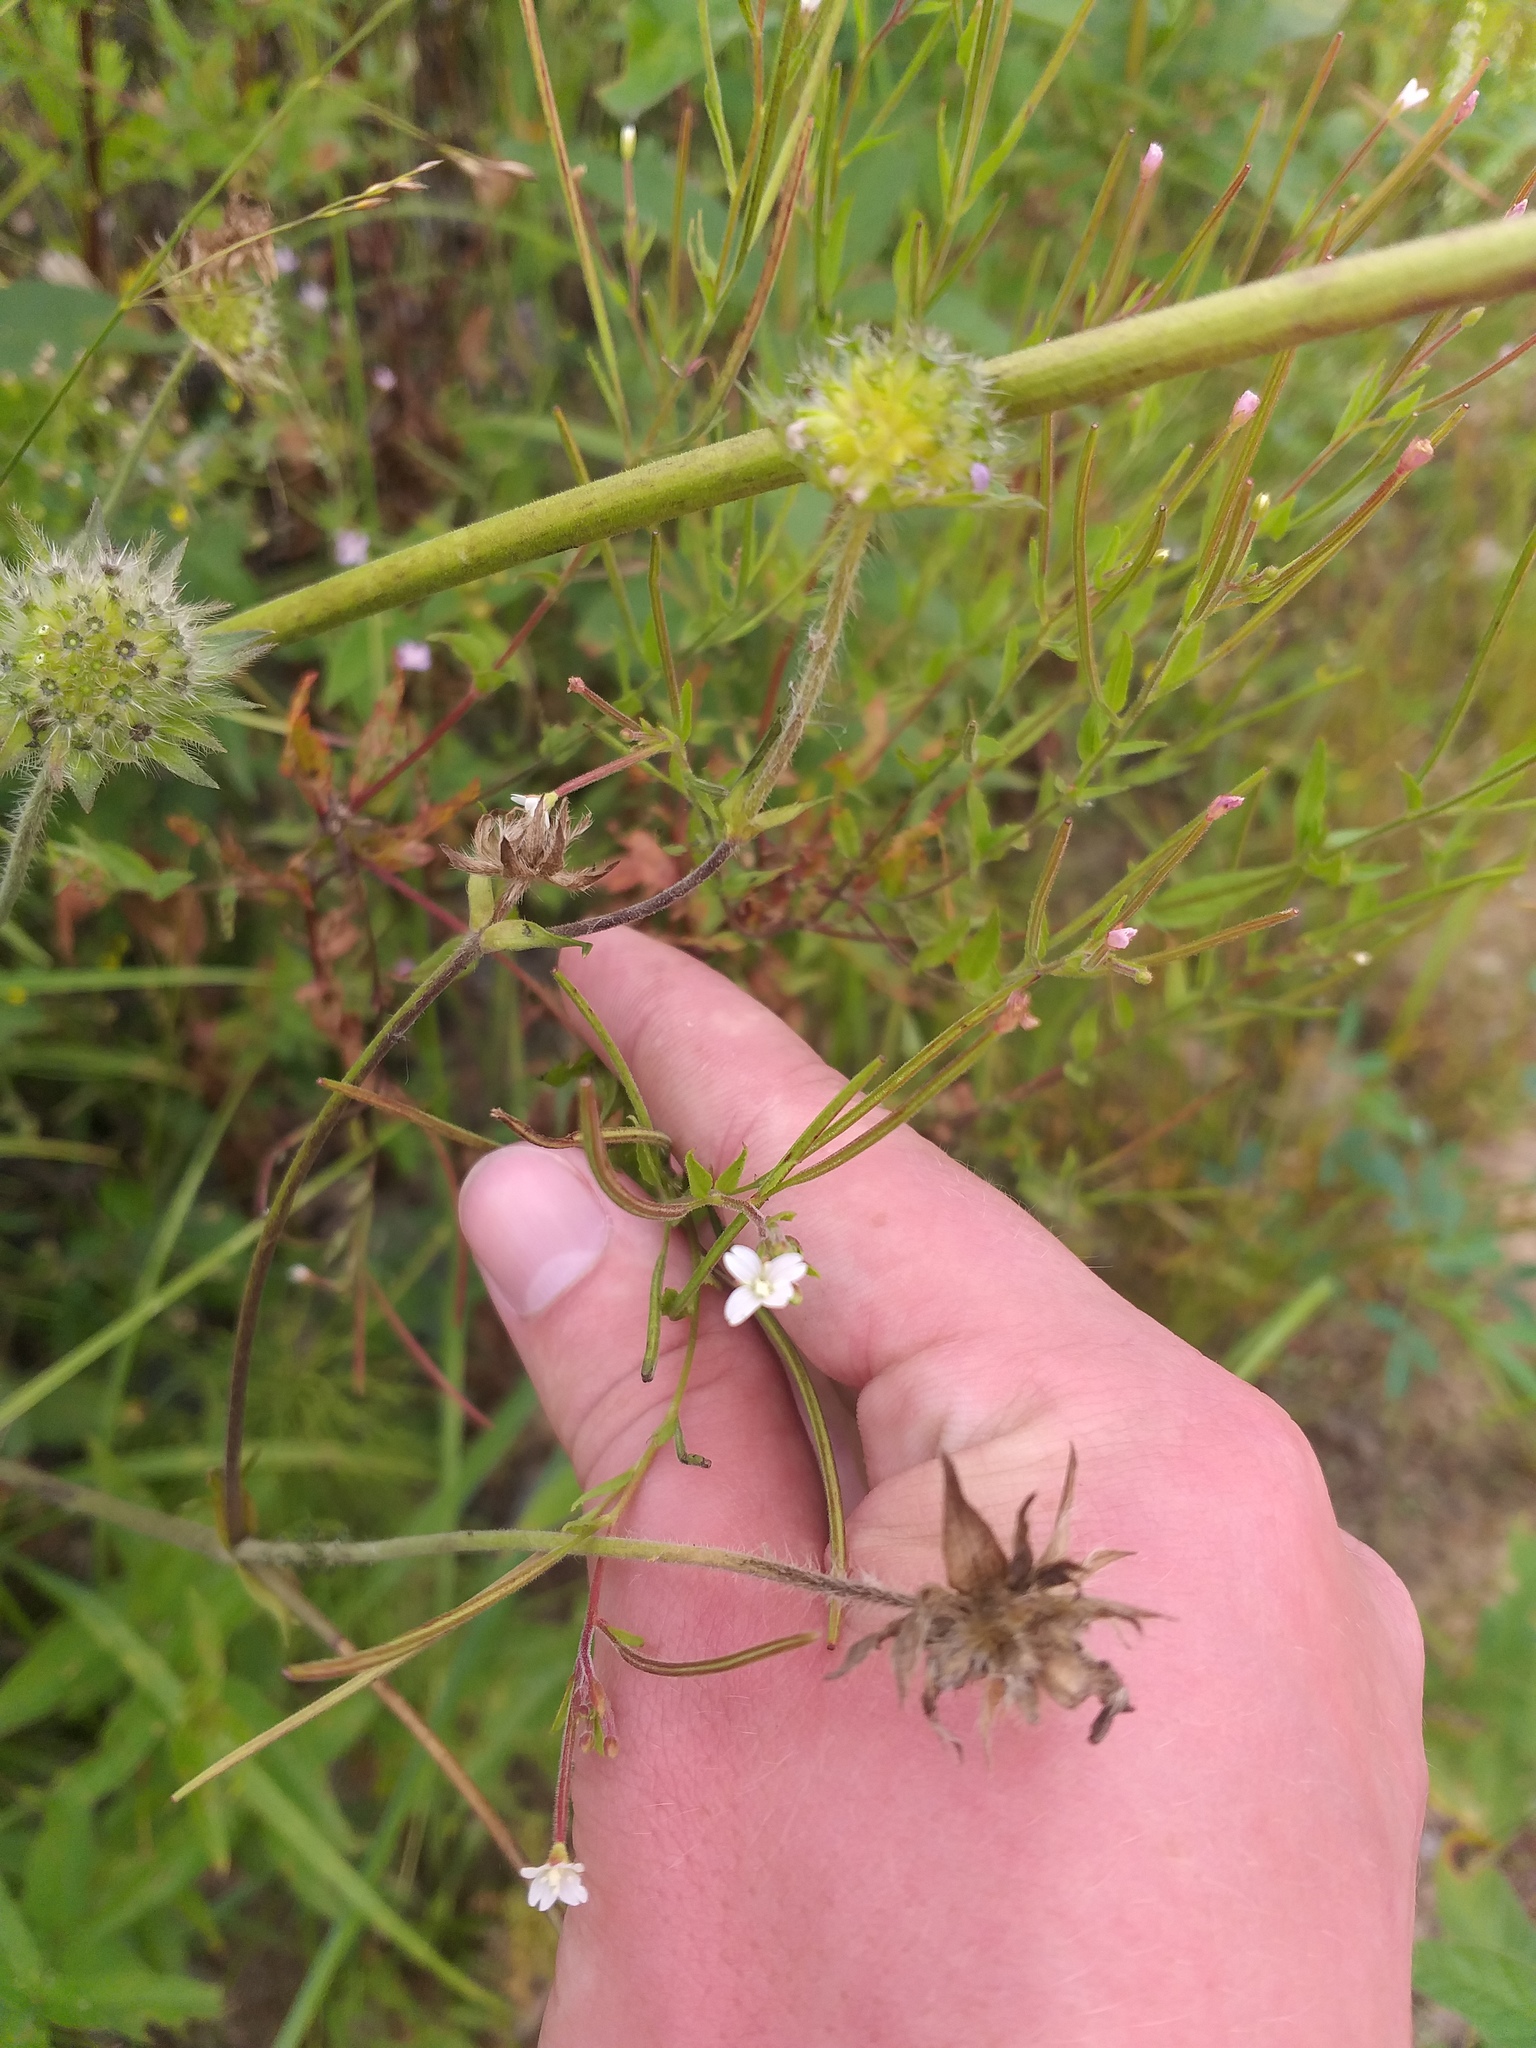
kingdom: Plantae
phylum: Tracheophyta
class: Magnoliopsida
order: Myrtales
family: Onagraceae
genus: Epilobium
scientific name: Epilobium pseudorubescens
